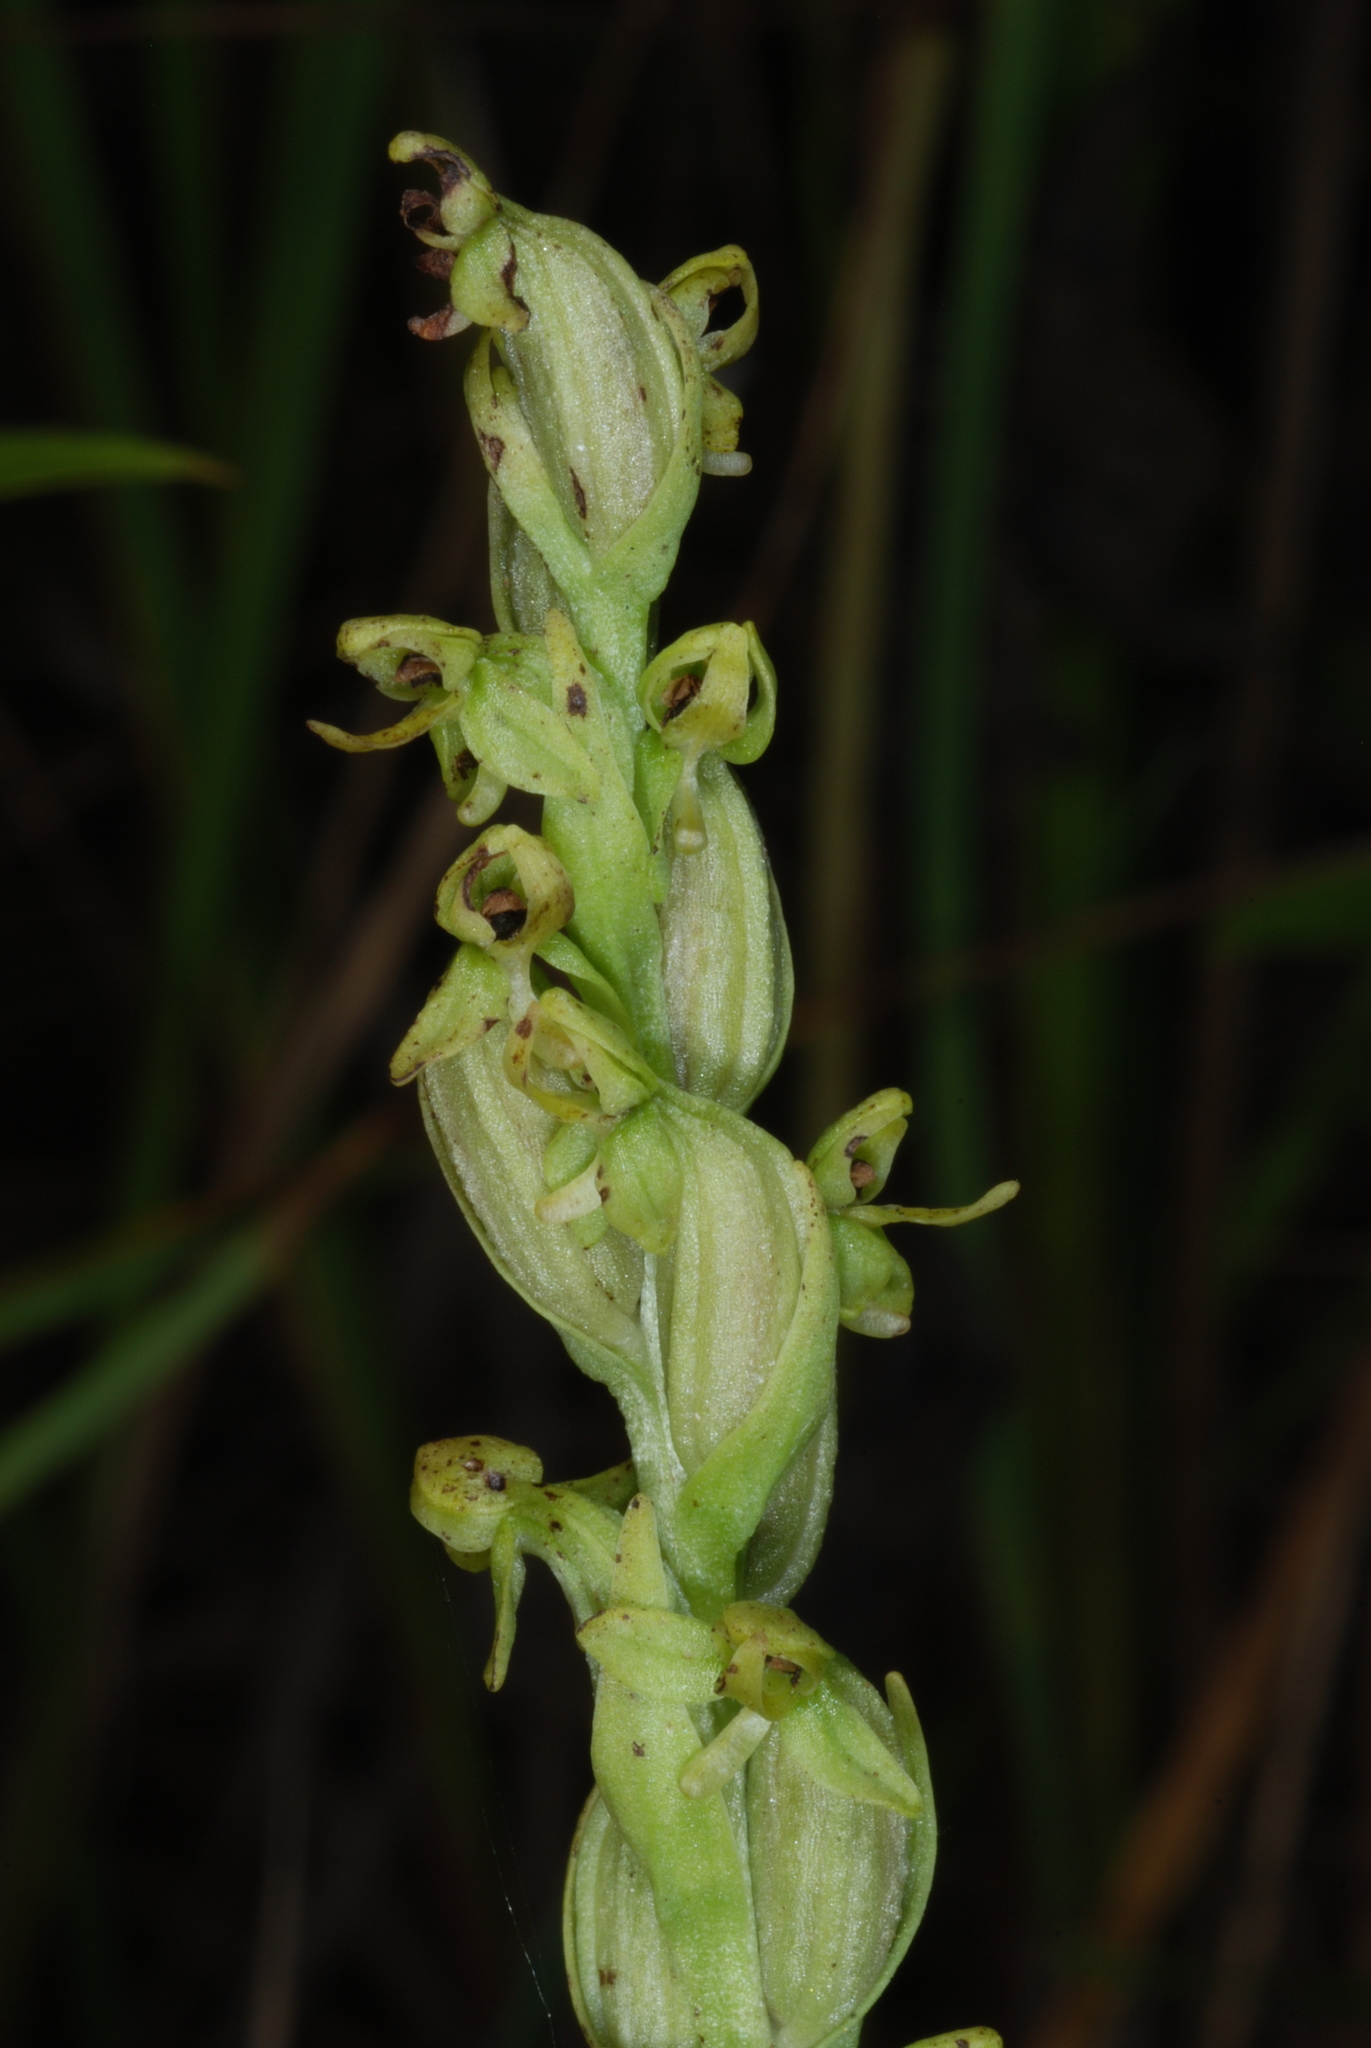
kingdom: Plantae
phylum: Tracheophyta
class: Liliopsida
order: Asparagales
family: Orchidaceae
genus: Platanthera
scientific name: Platanthera aquilonis
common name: Northern green orchid
